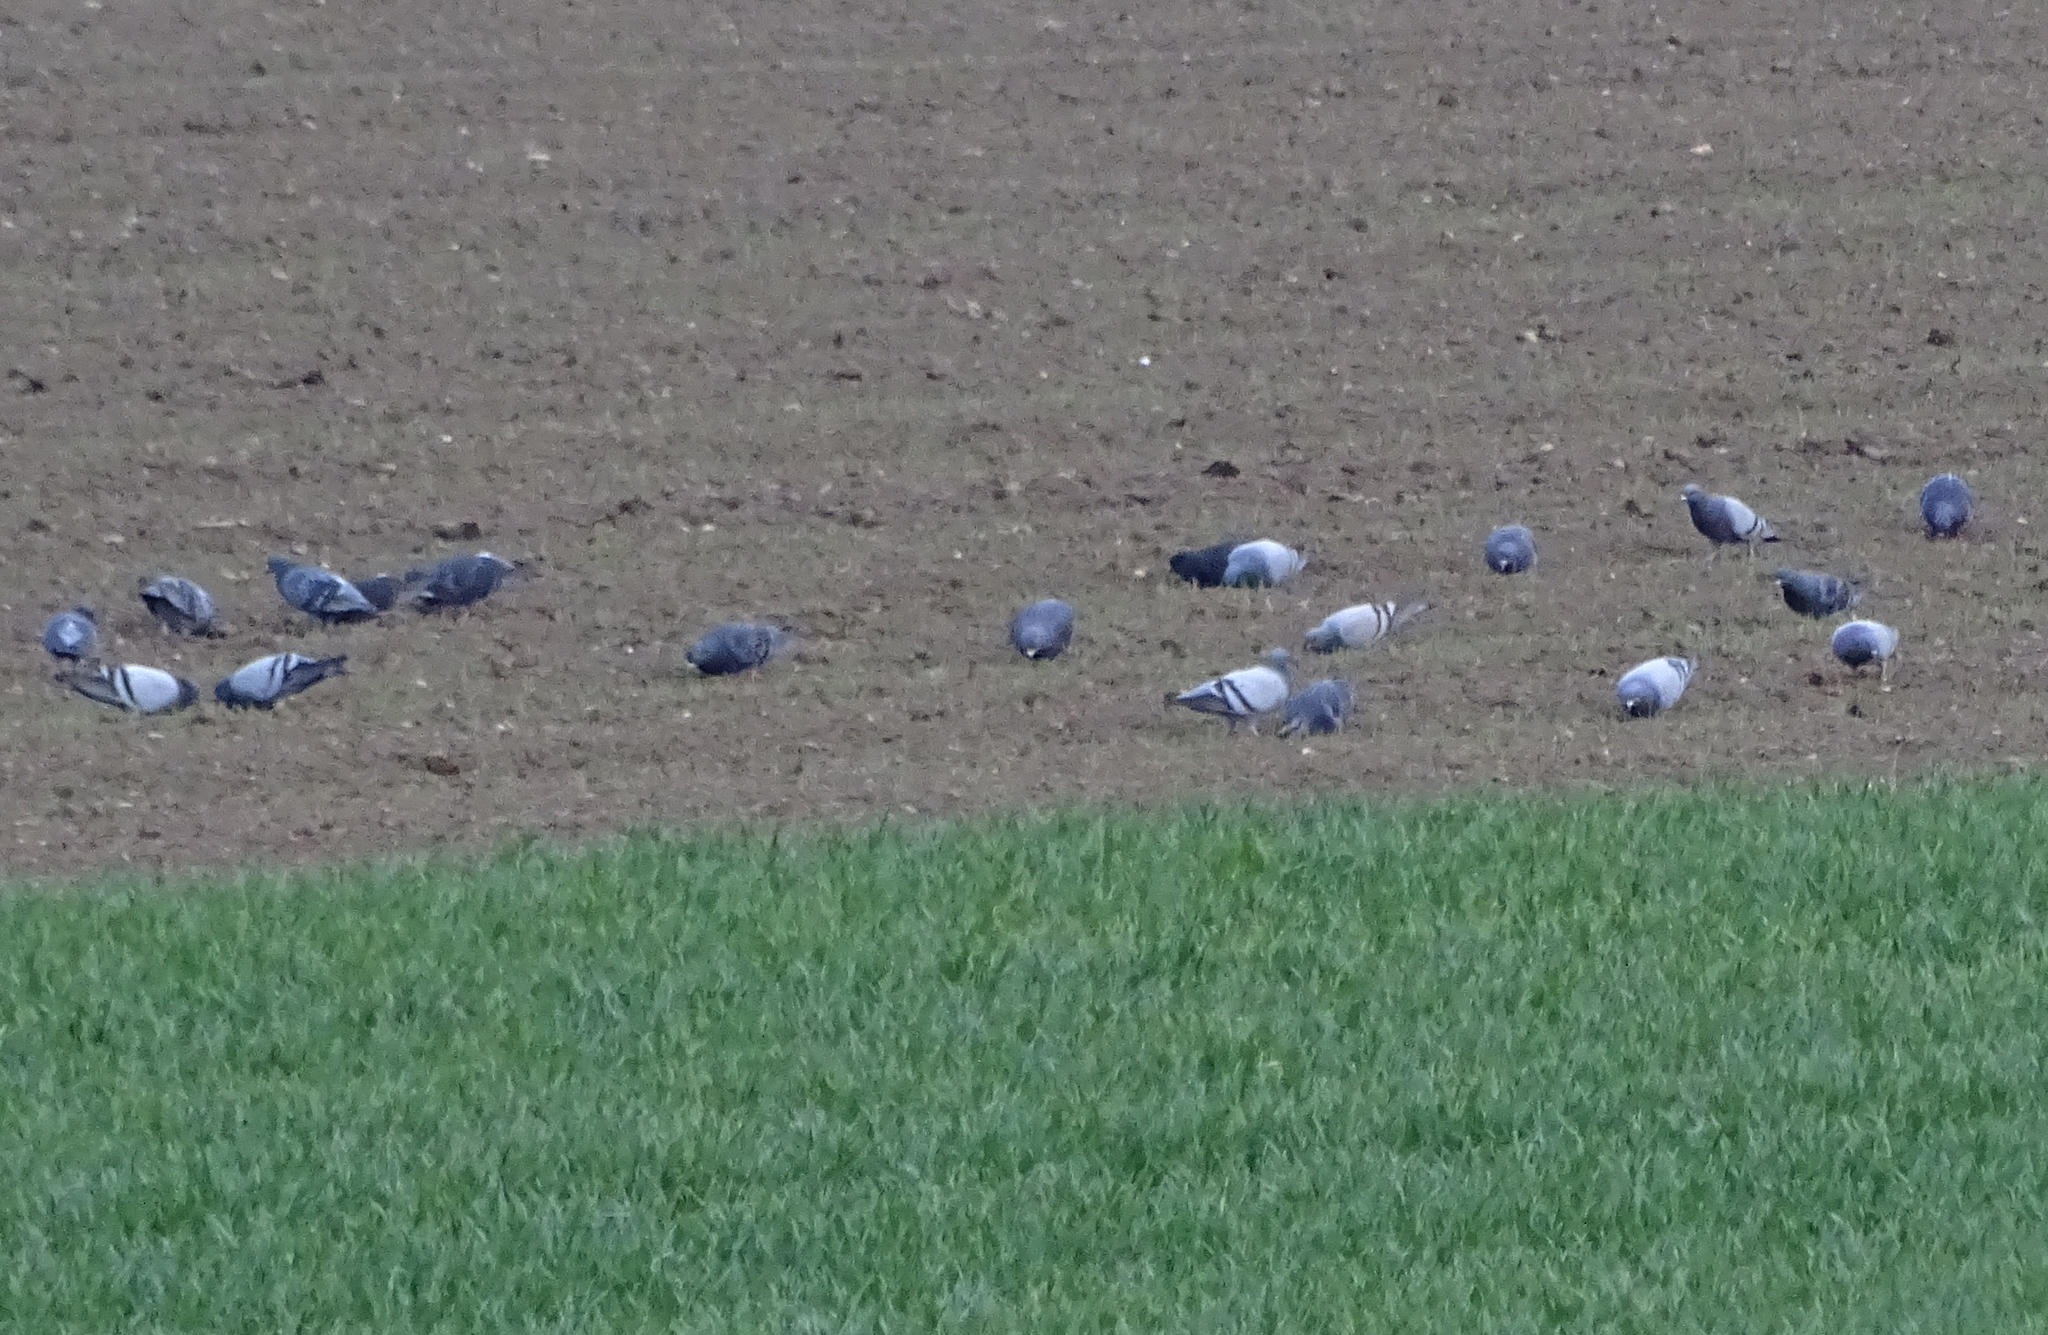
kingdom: Animalia
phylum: Chordata
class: Aves
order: Columbiformes
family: Columbidae
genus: Columba
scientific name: Columba livia
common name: Rock pigeon
